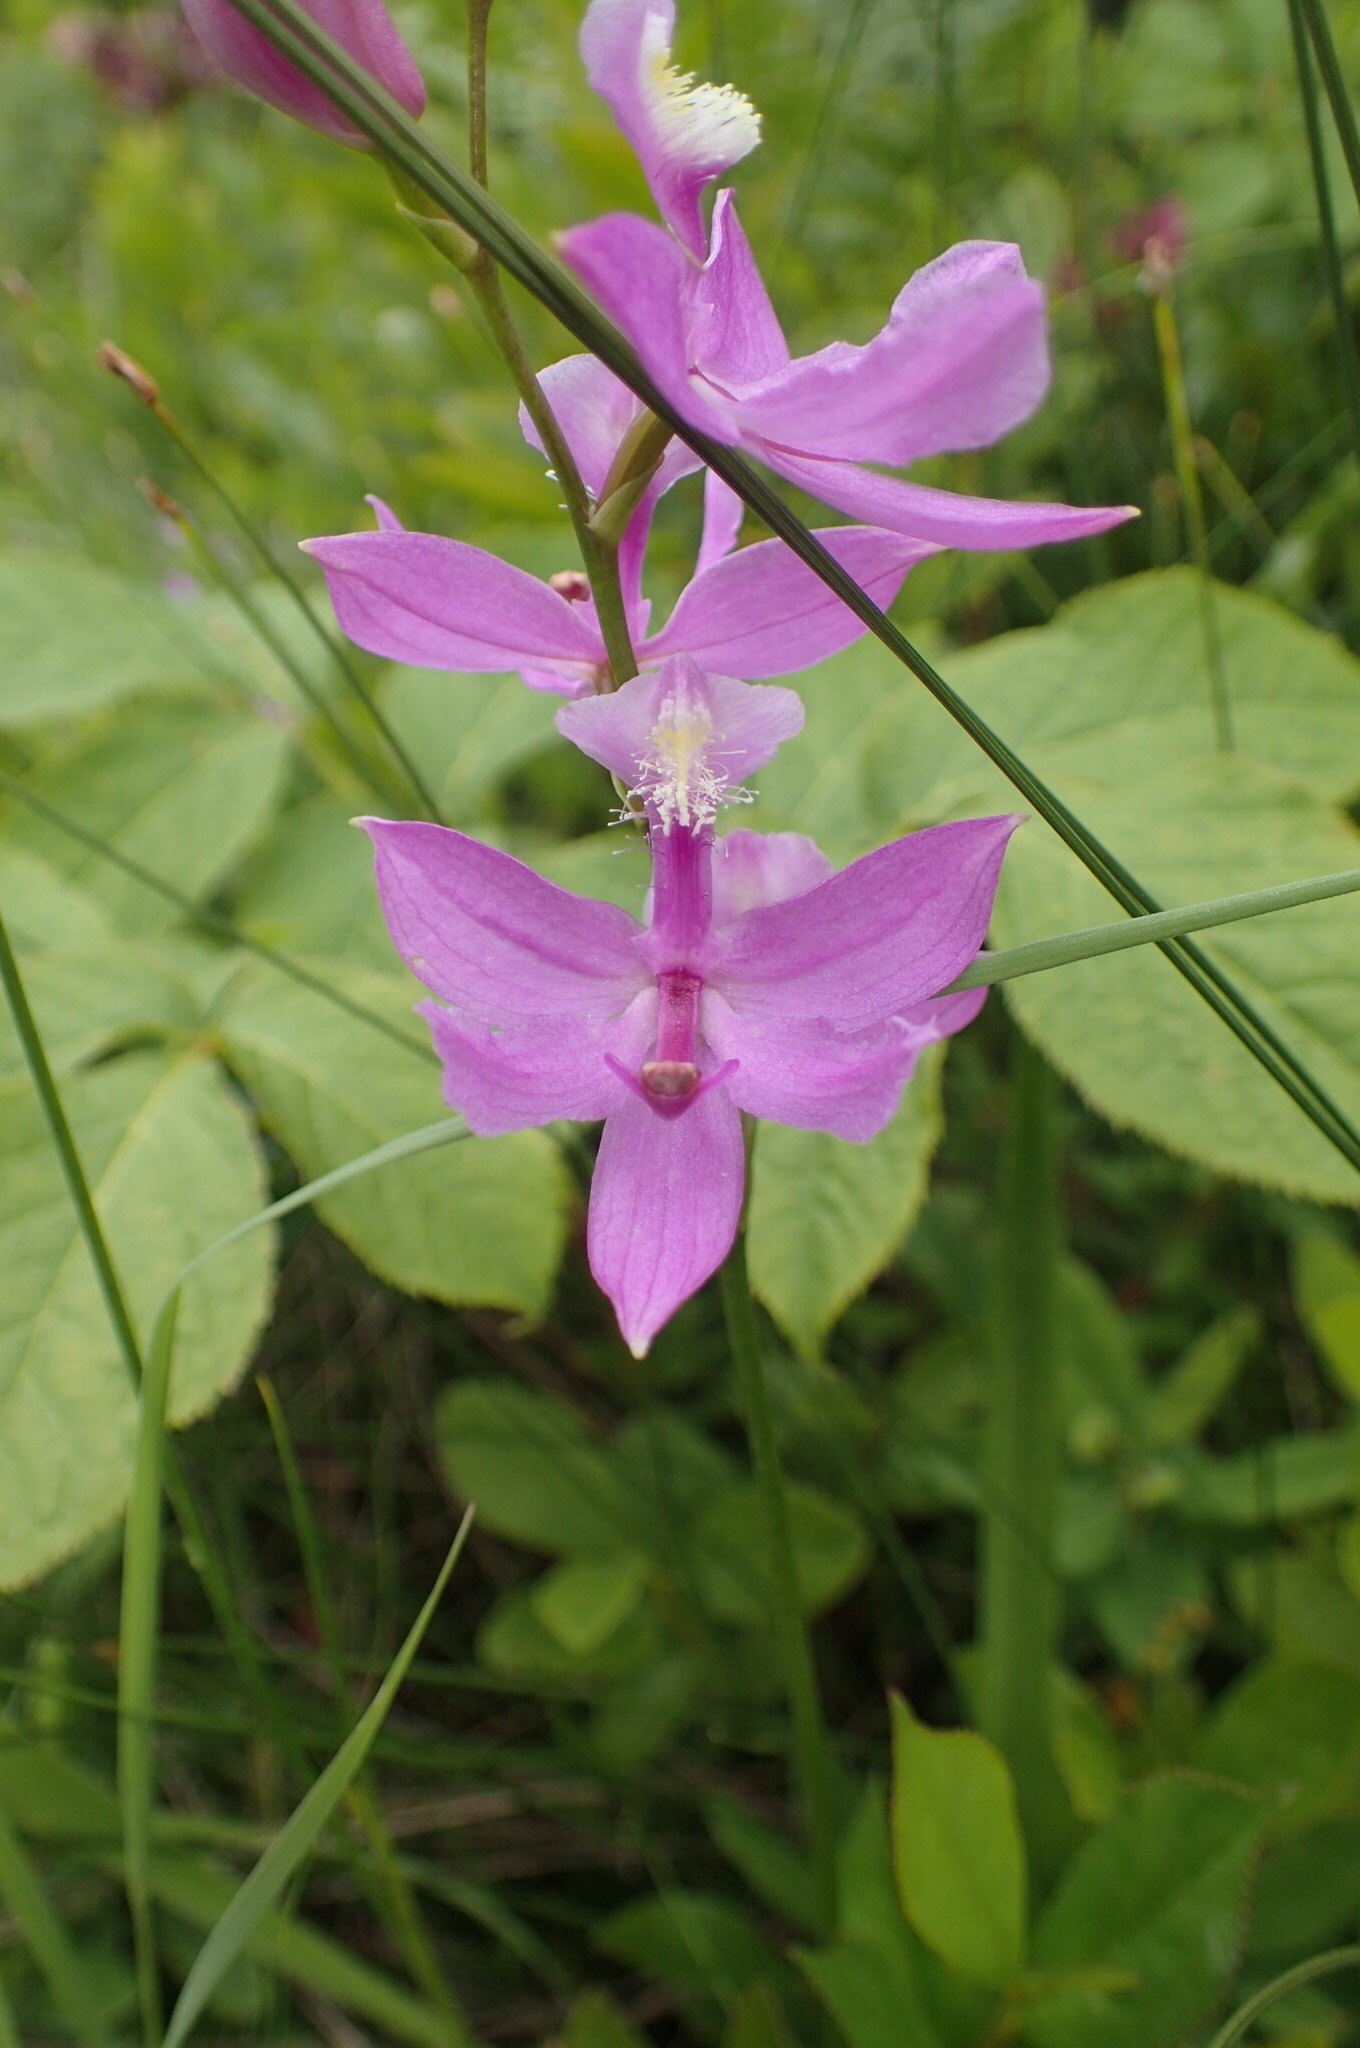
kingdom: Plantae
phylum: Tracheophyta
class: Liliopsida
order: Asparagales
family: Orchidaceae
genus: Calopogon
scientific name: Calopogon tuberosus
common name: Grass-pink
